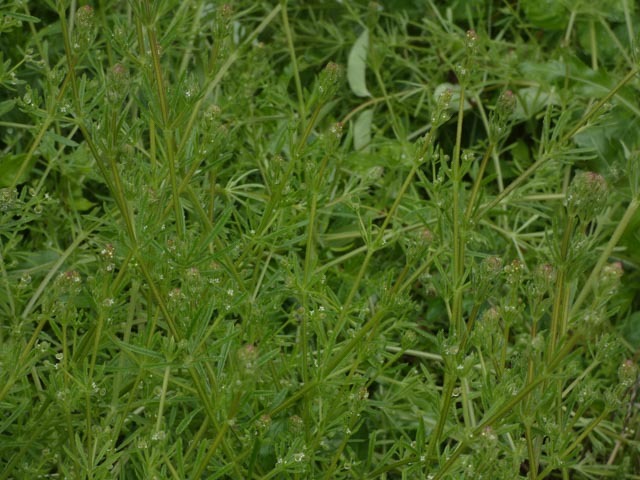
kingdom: Plantae
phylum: Tracheophyta
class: Magnoliopsida
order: Gentianales
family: Rubiaceae
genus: Galium
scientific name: Galium aparine
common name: Cleavers
